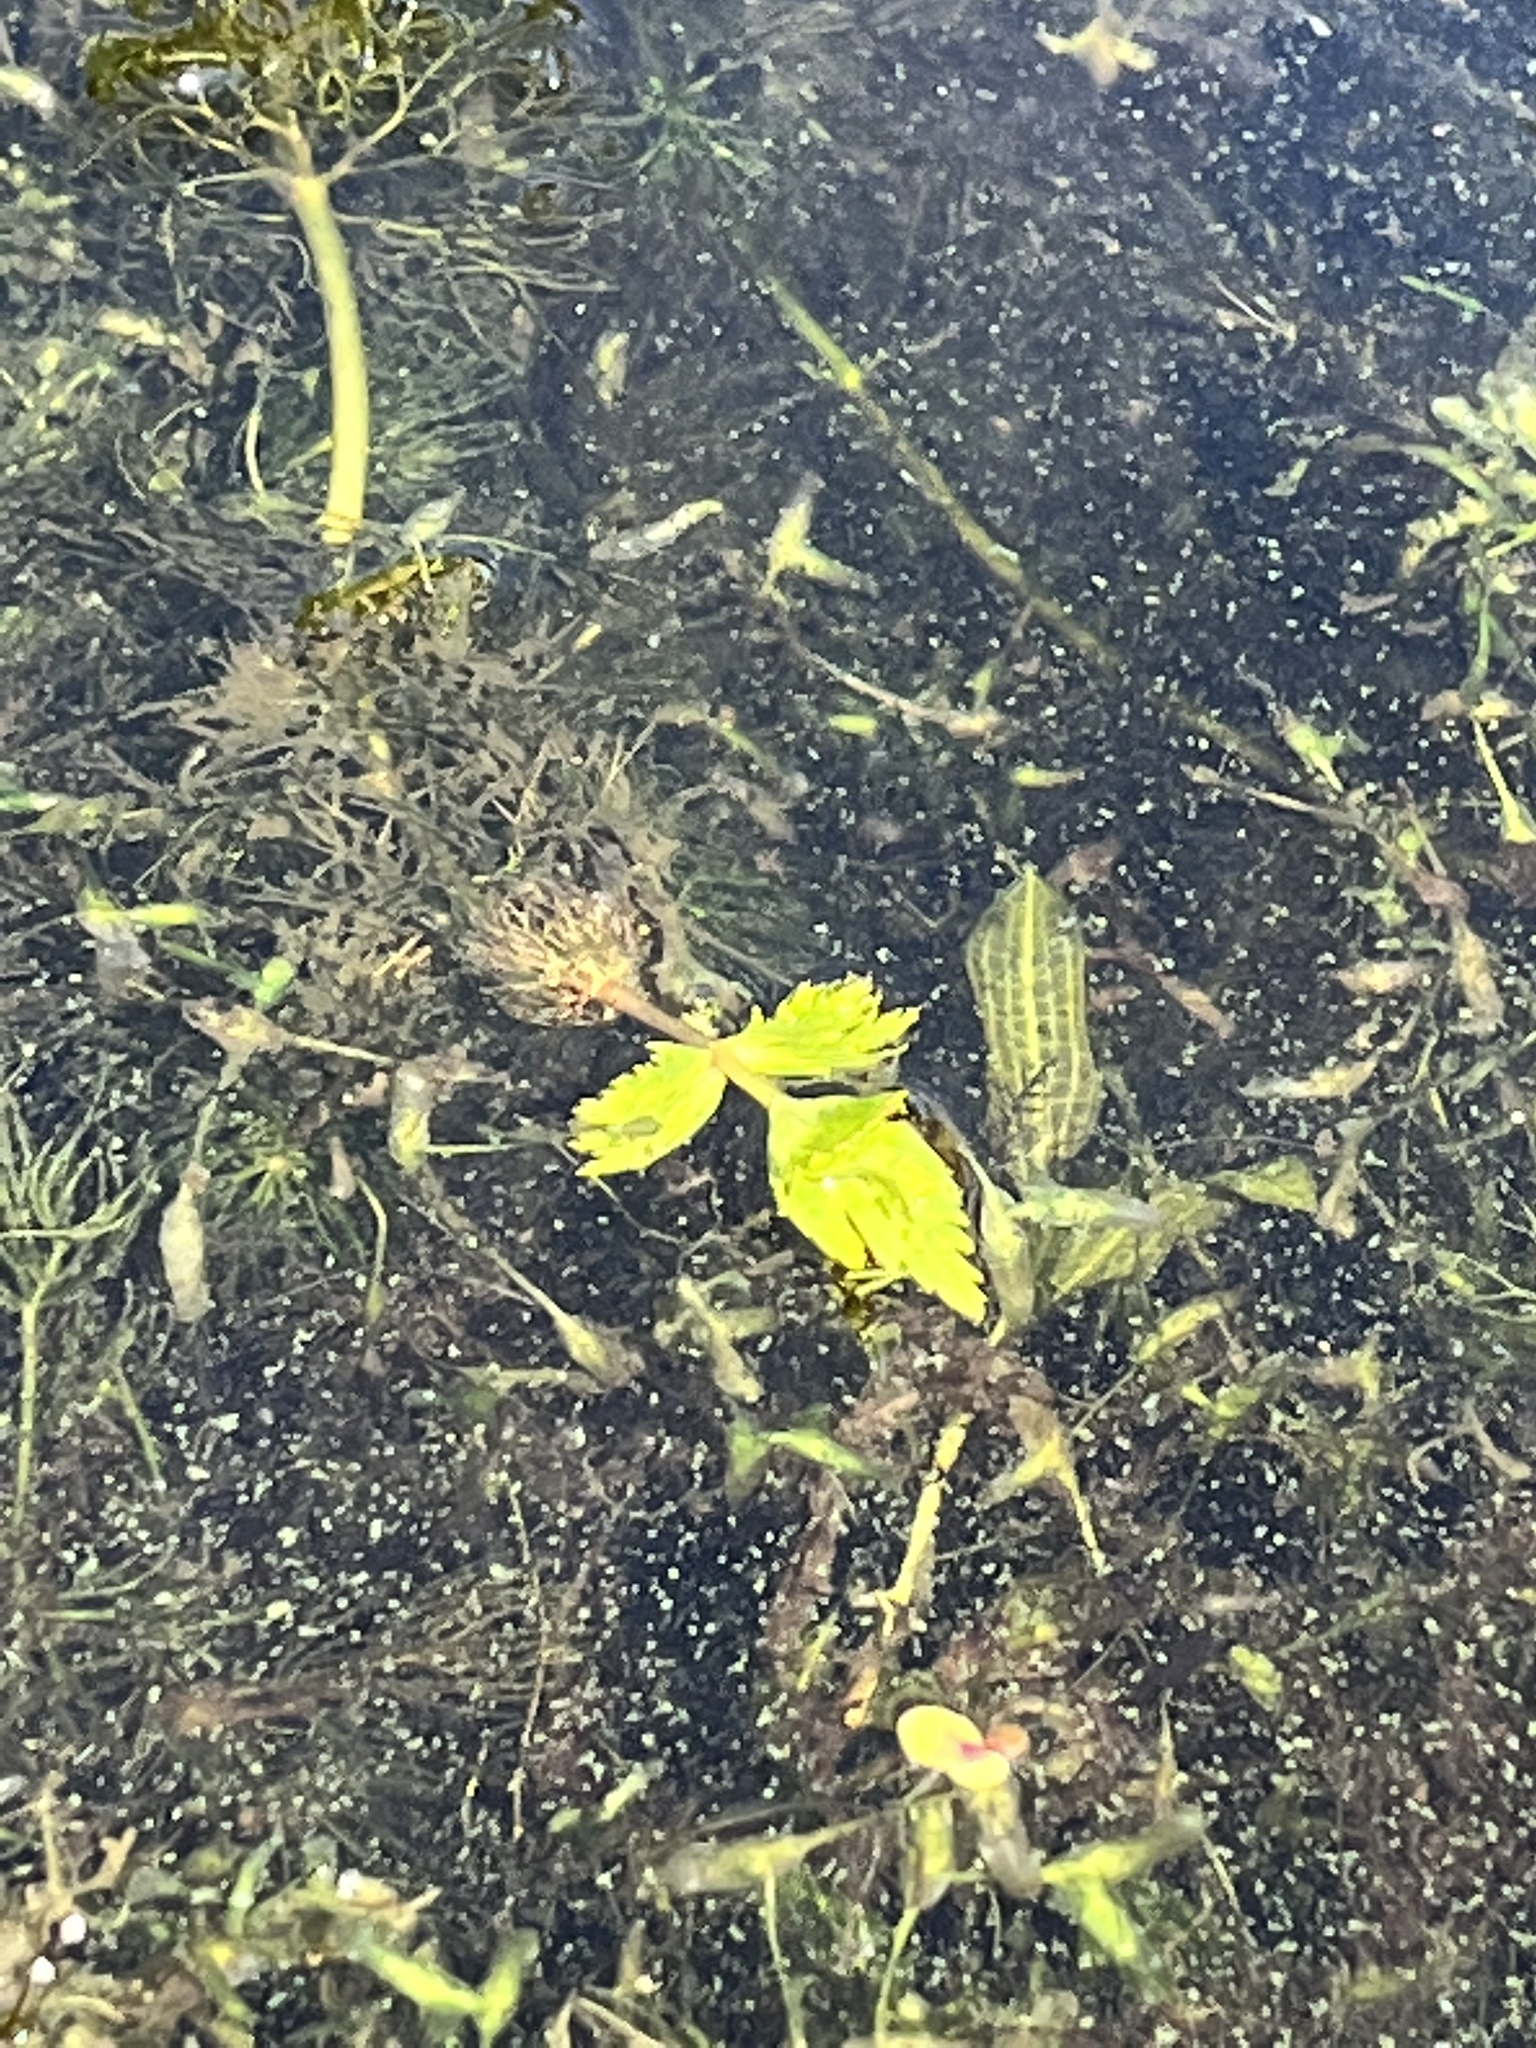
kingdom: Plantae
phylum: Tracheophyta
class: Magnoliopsida
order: Asterales
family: Asteraceae
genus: Bidens
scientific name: Bidens beckii
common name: Beck's beggarticks
